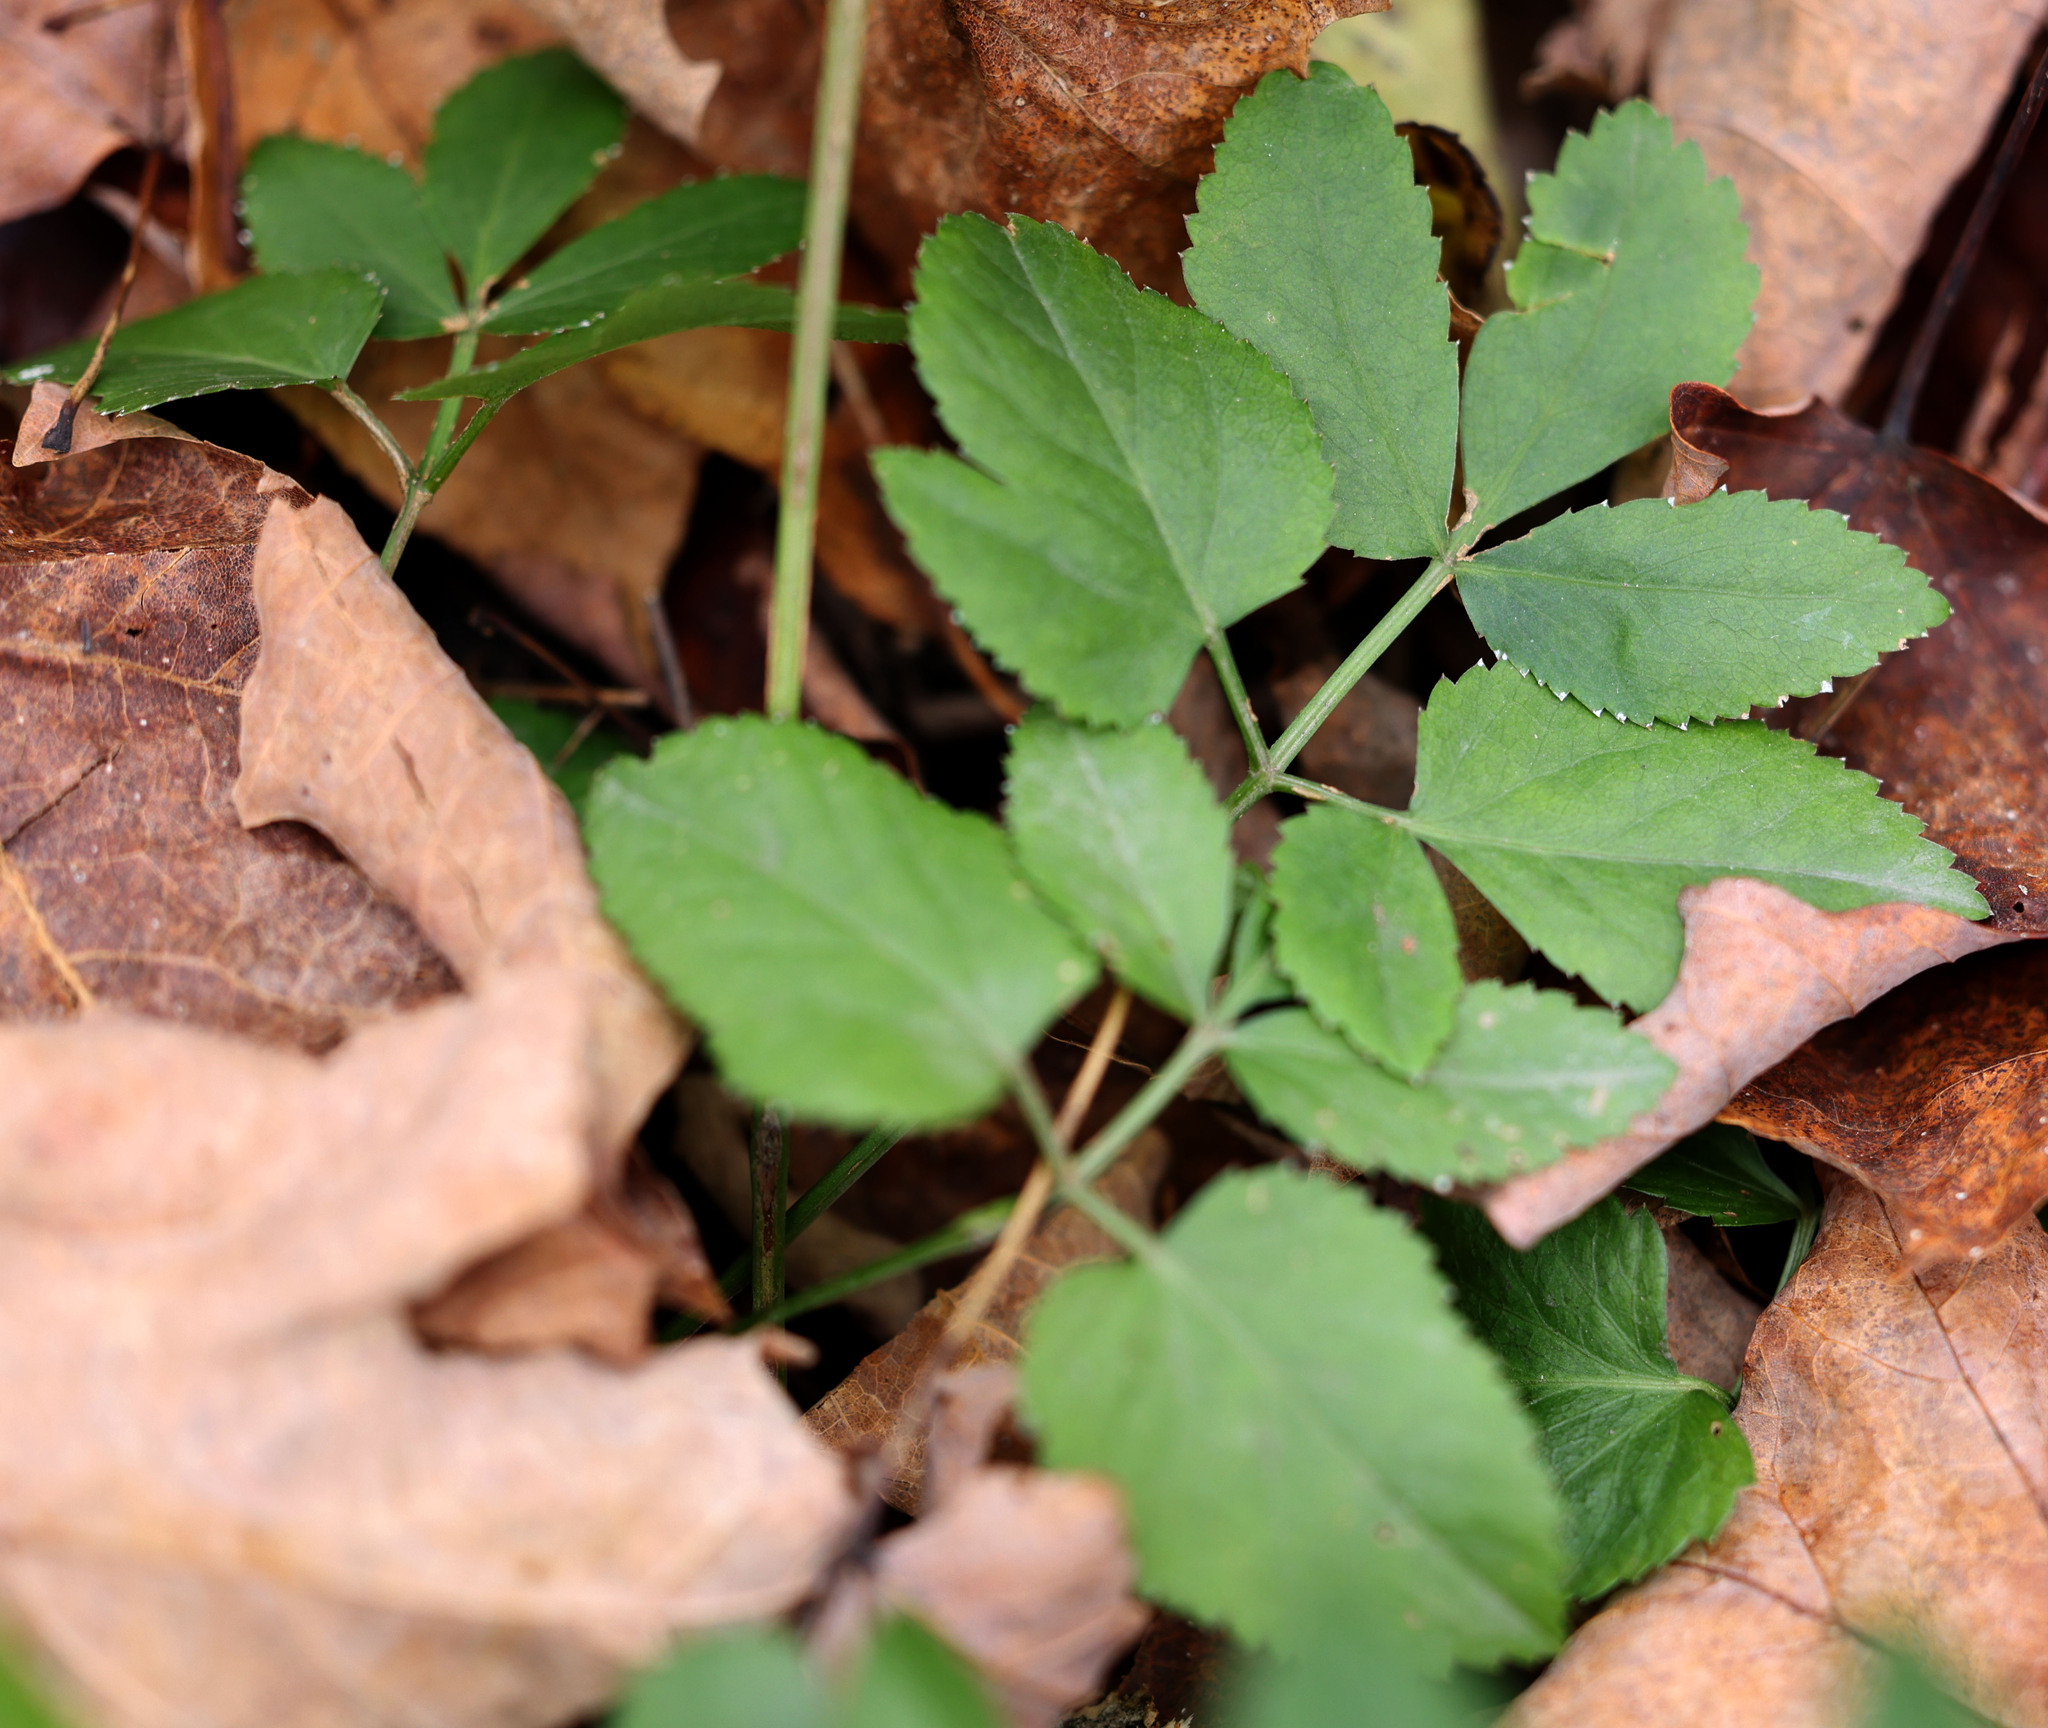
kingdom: Plantae
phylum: Tracheophyta
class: Magnoliopsida
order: Apiales
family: Apiaceae
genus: Zizia
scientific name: Zizia aurea
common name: Golden alexanders
